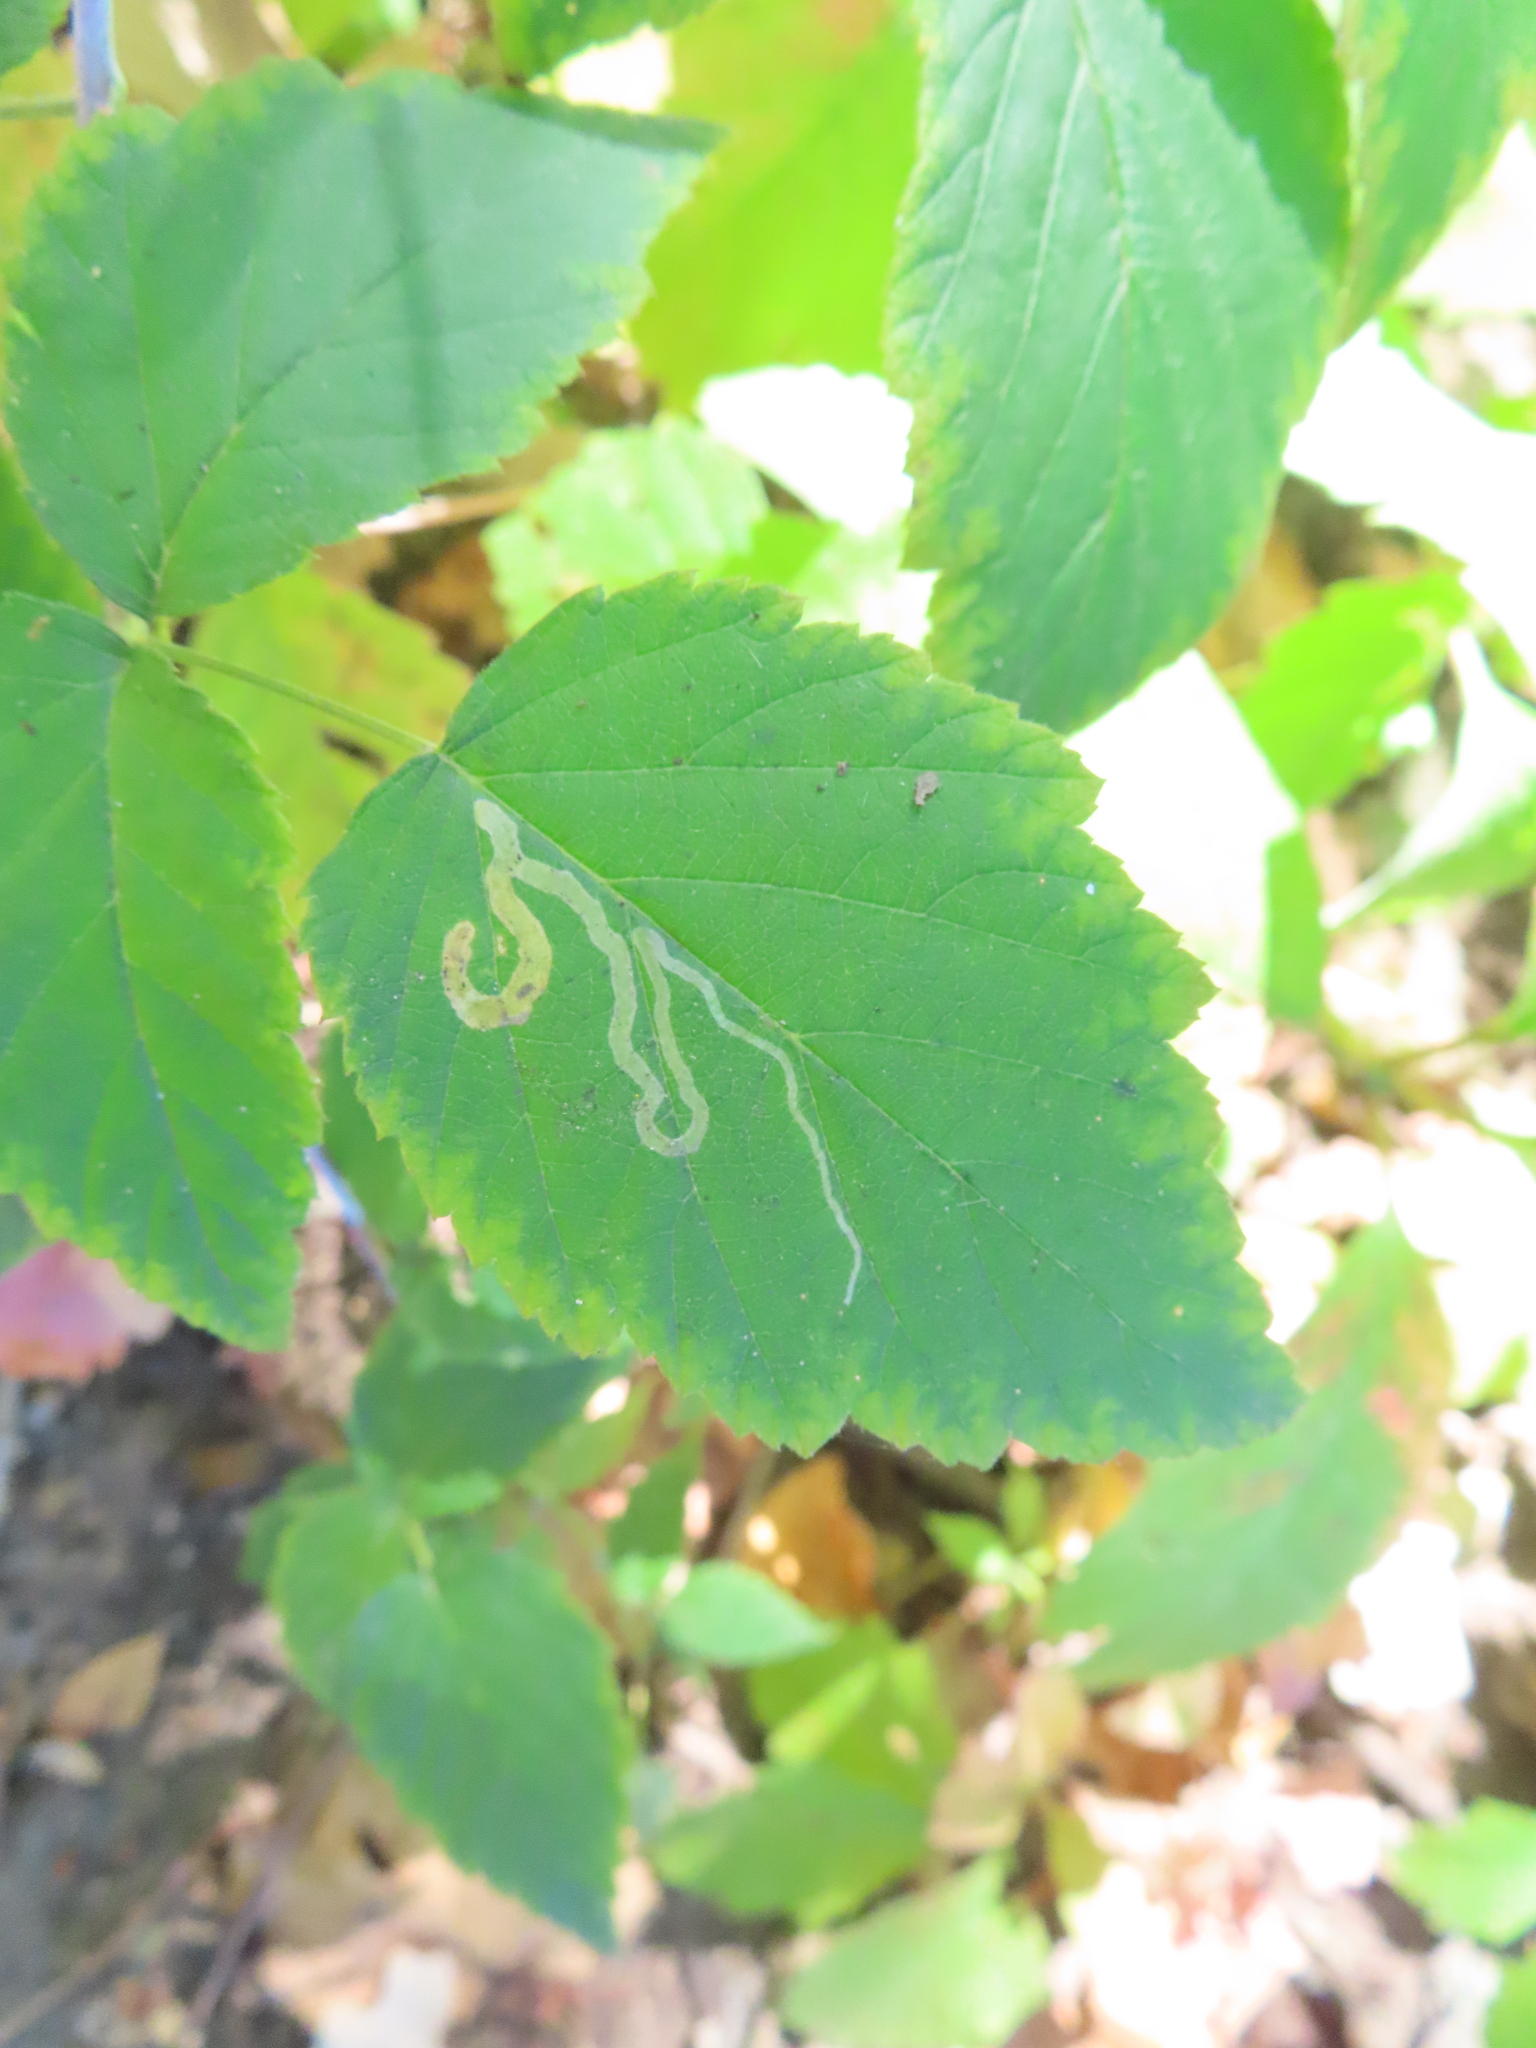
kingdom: Animalia
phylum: Arthropoda
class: Insecta
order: Diptera
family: Agromyzidae
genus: Agromyza
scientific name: Agromyza vockerothi
